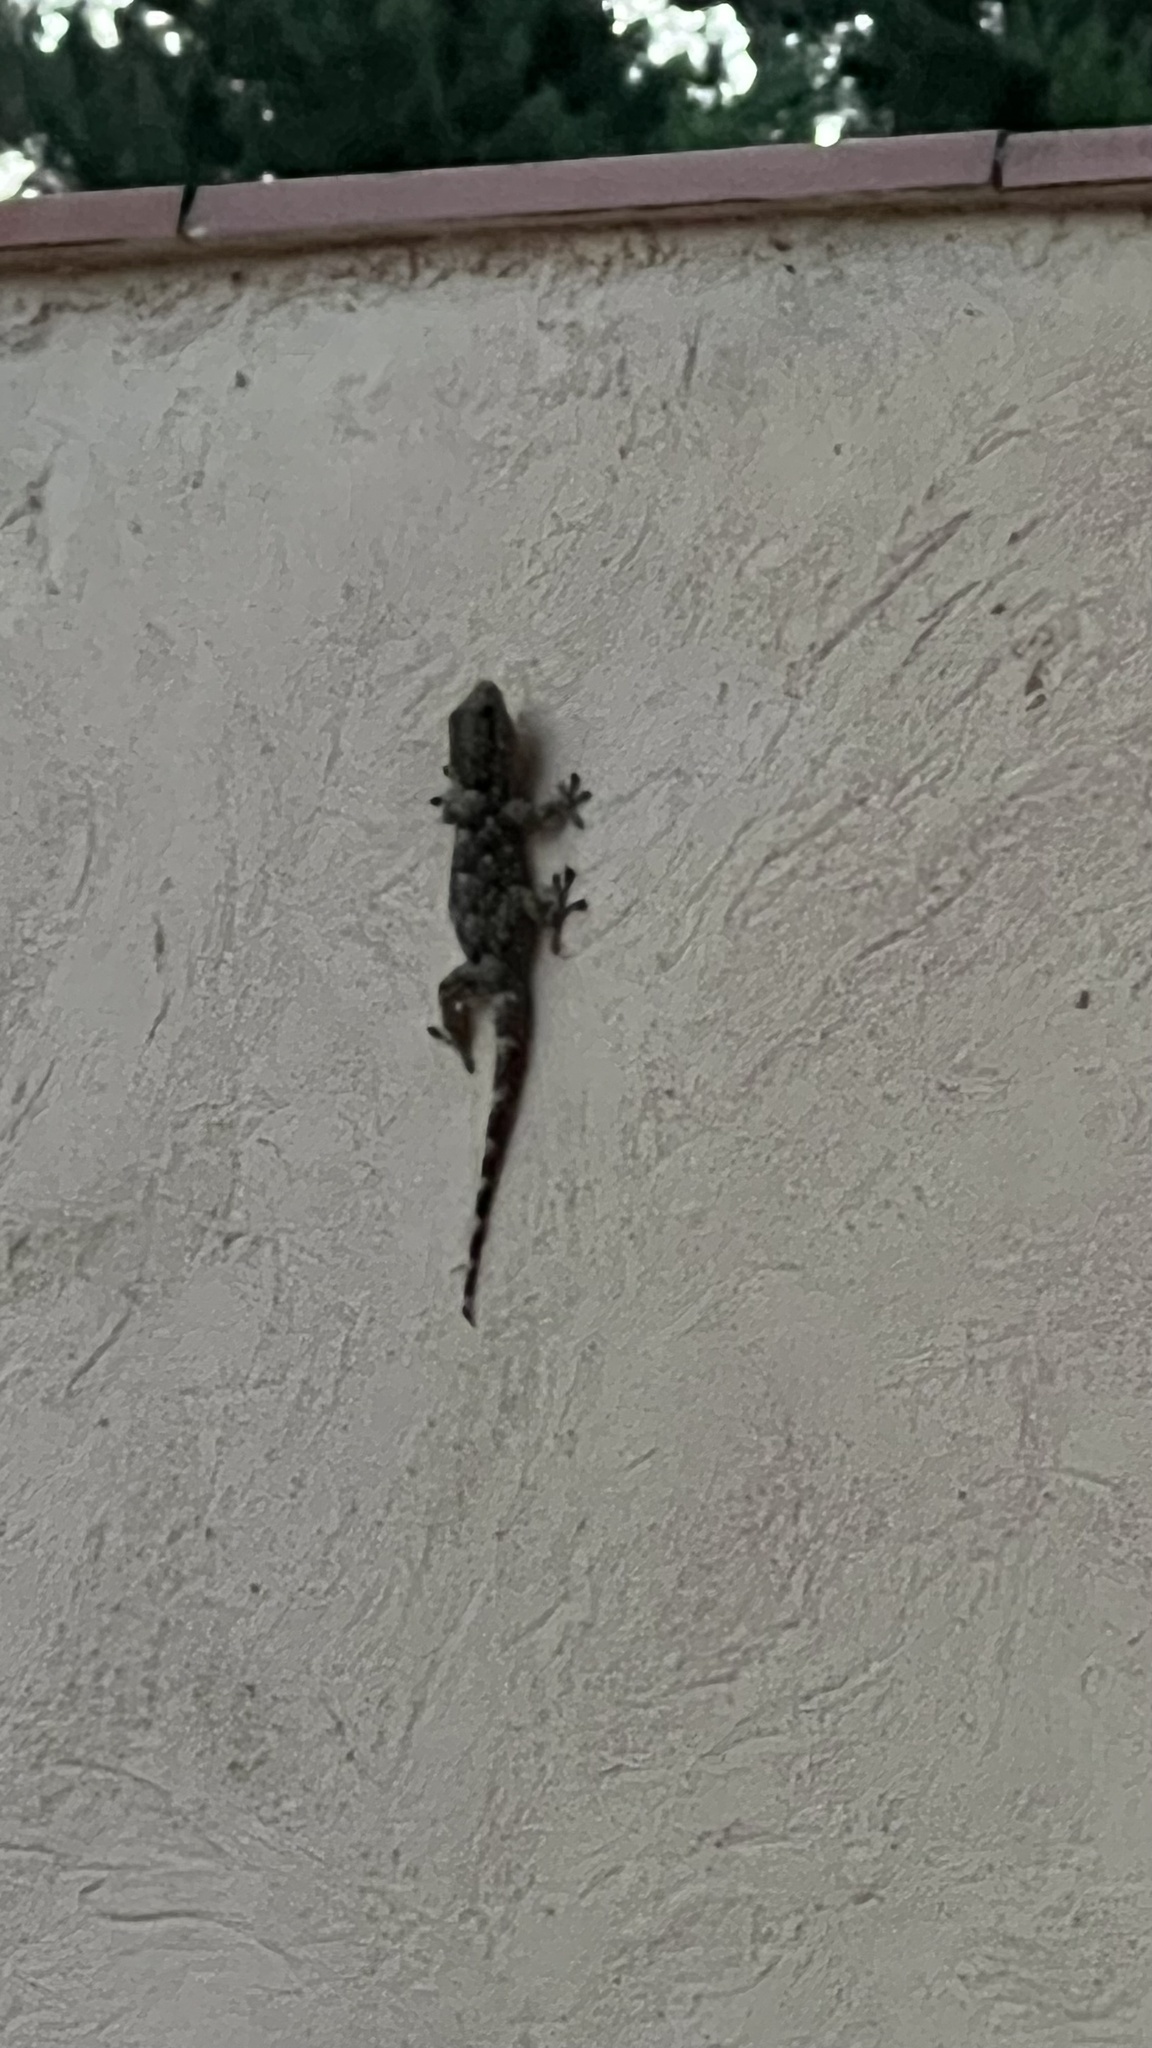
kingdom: Animalia
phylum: Chordata
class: Squamata
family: Phyllodactylidae
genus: Tarentola
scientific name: Tarentola mauritanica
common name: Moorish gecko
